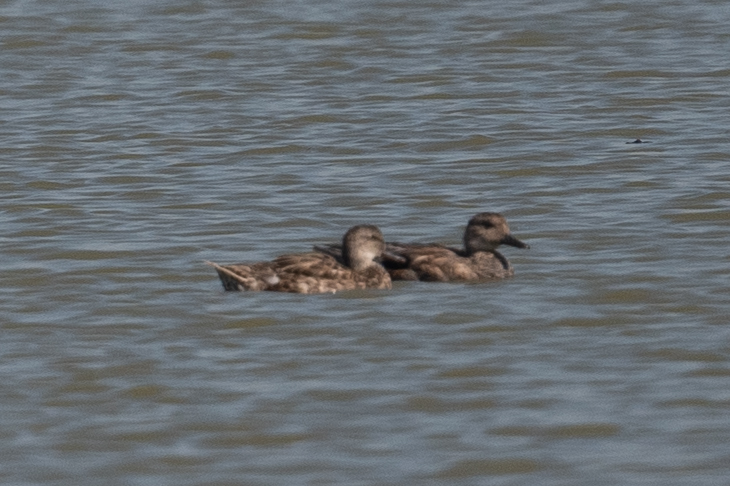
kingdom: Animalia
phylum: Chordata
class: Aves
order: Anseriformes
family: Anatidae
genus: Mareca
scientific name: Mareca strepera
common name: Gadwall
